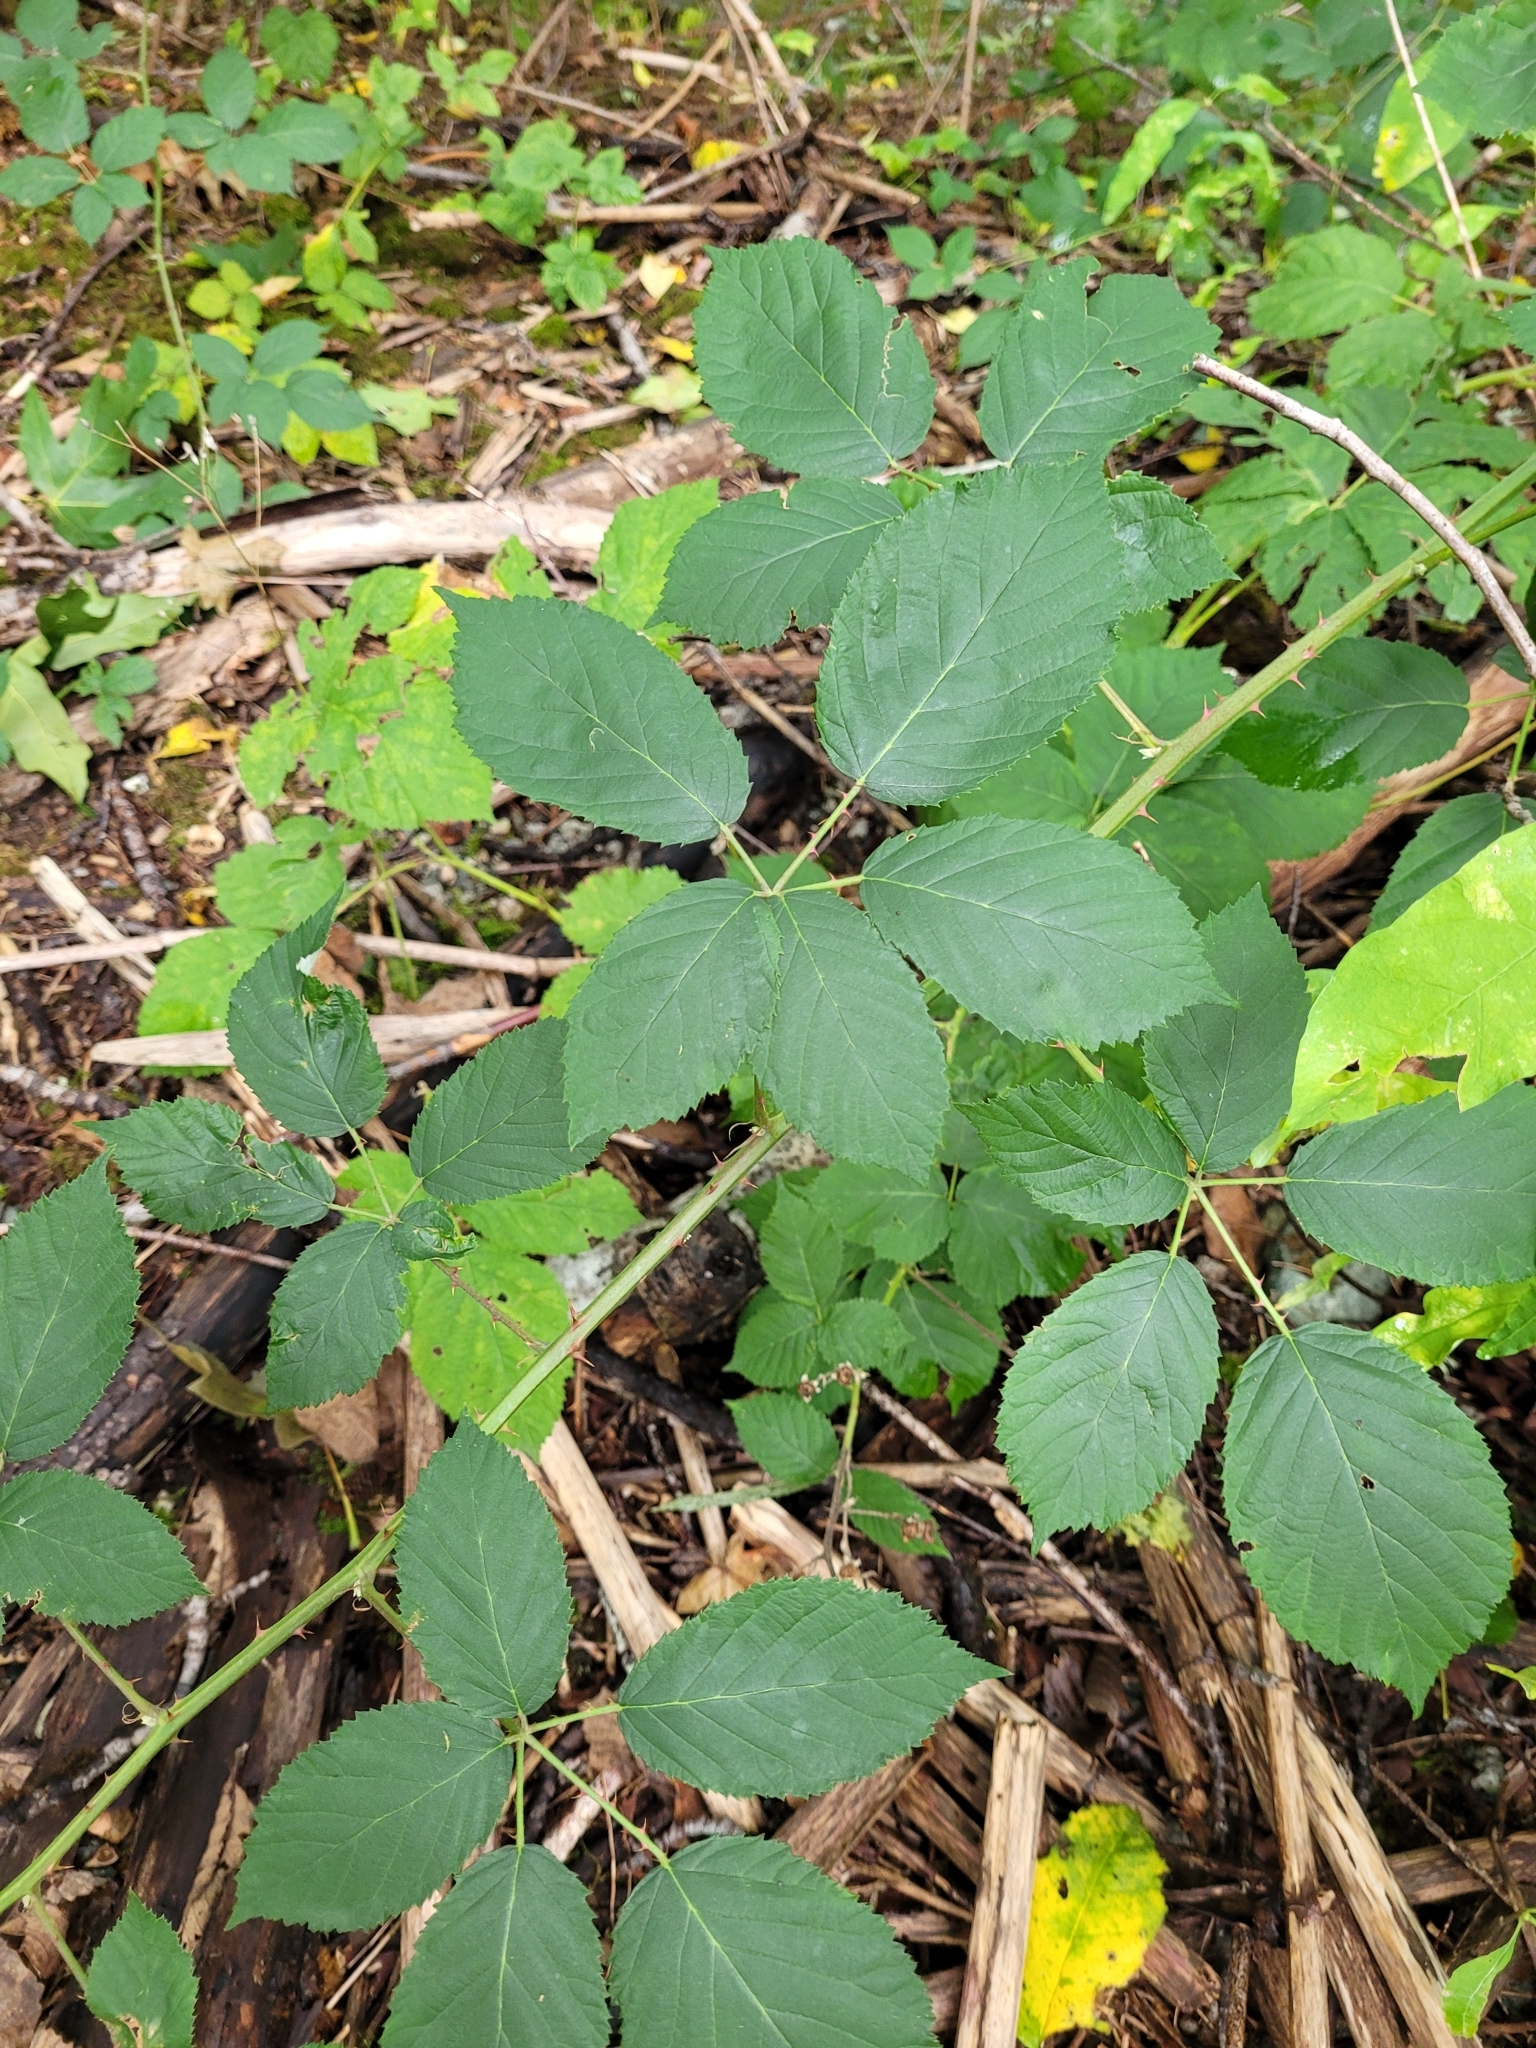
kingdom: Plantae
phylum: Tracheophyta
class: Magnoliopsida
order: Rosales
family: Rosaceae
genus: Rubus
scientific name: Rubus bifrons
